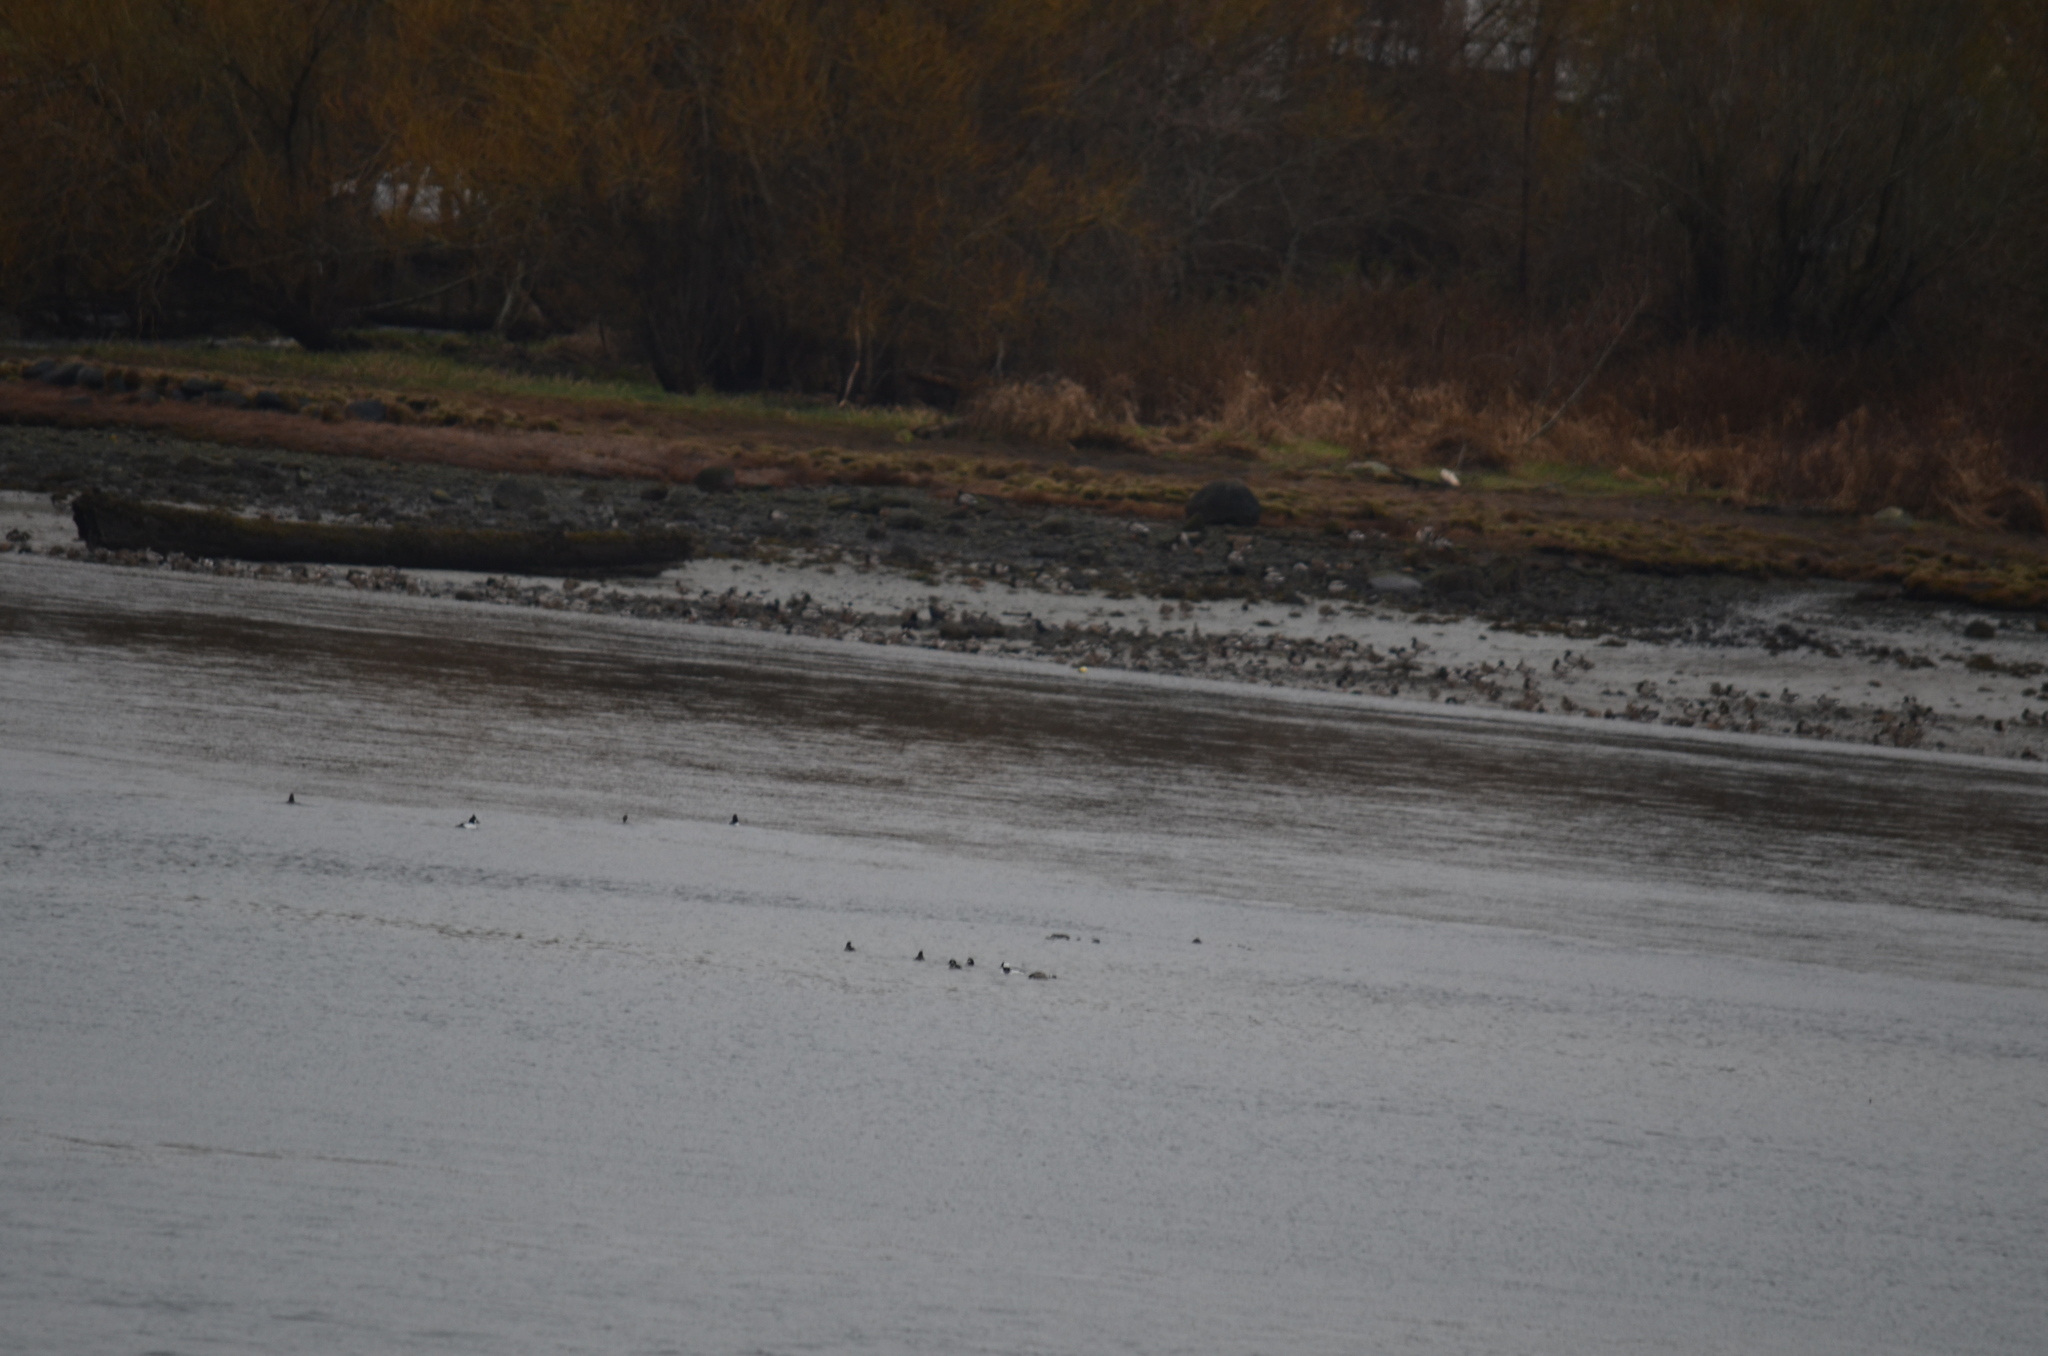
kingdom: Animalia
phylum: Chordata
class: Aves
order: Anseriformes
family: Anatidae
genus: Anas
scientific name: Anas platyrhynchos
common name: Mallard
